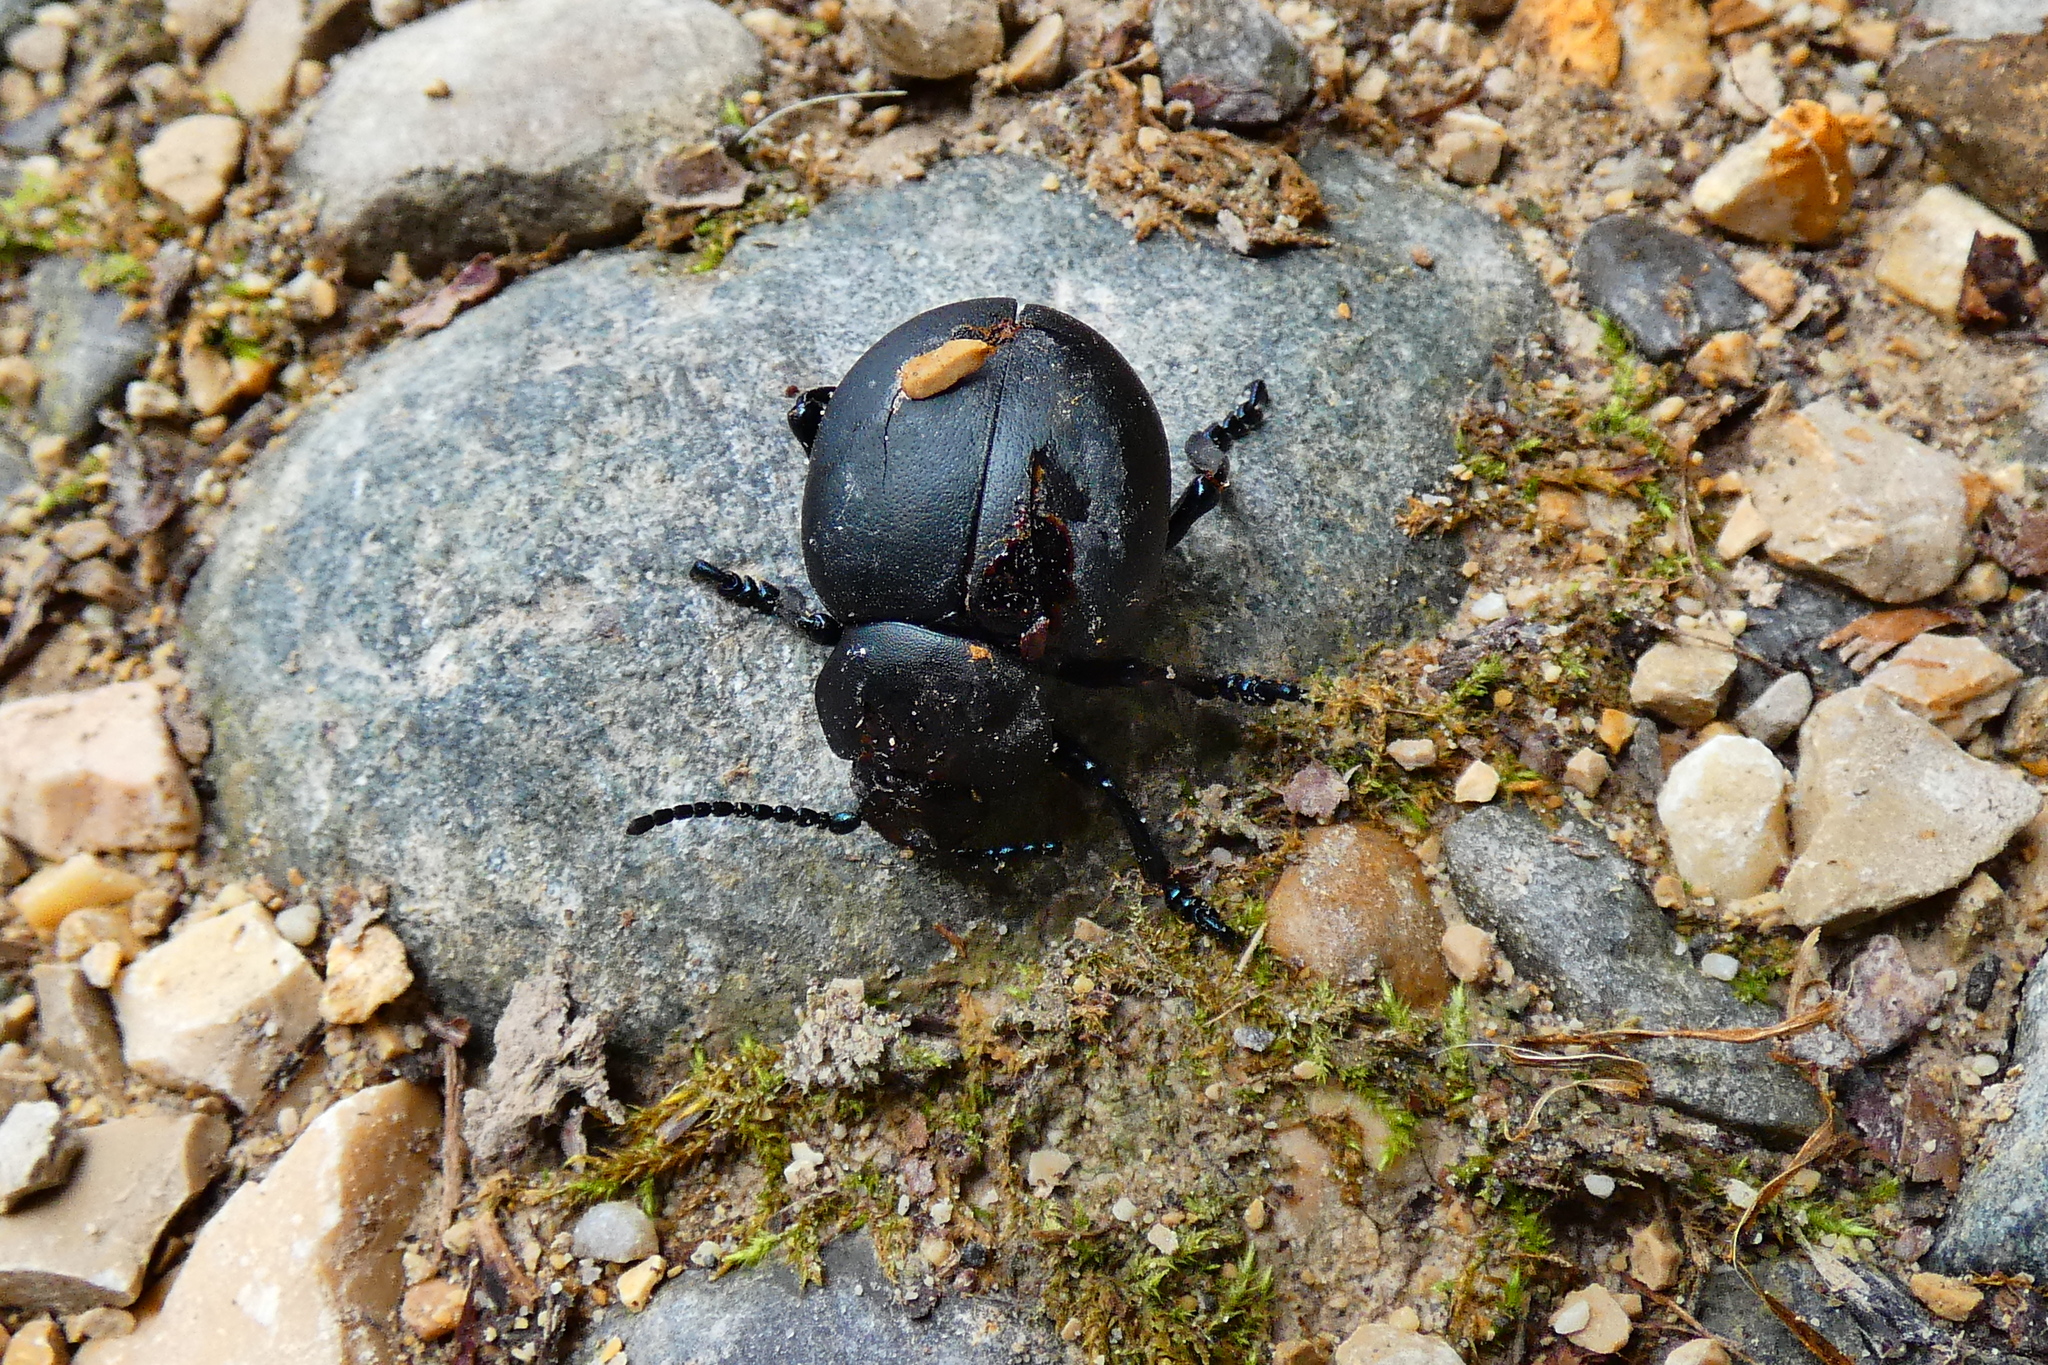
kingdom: Animalia
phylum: Arthropoda
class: Insecta
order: Coleoptera
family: Chrysomelidae
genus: Timarcha
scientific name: Timarcha tenebricosa
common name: Bloody-nosed beetle
